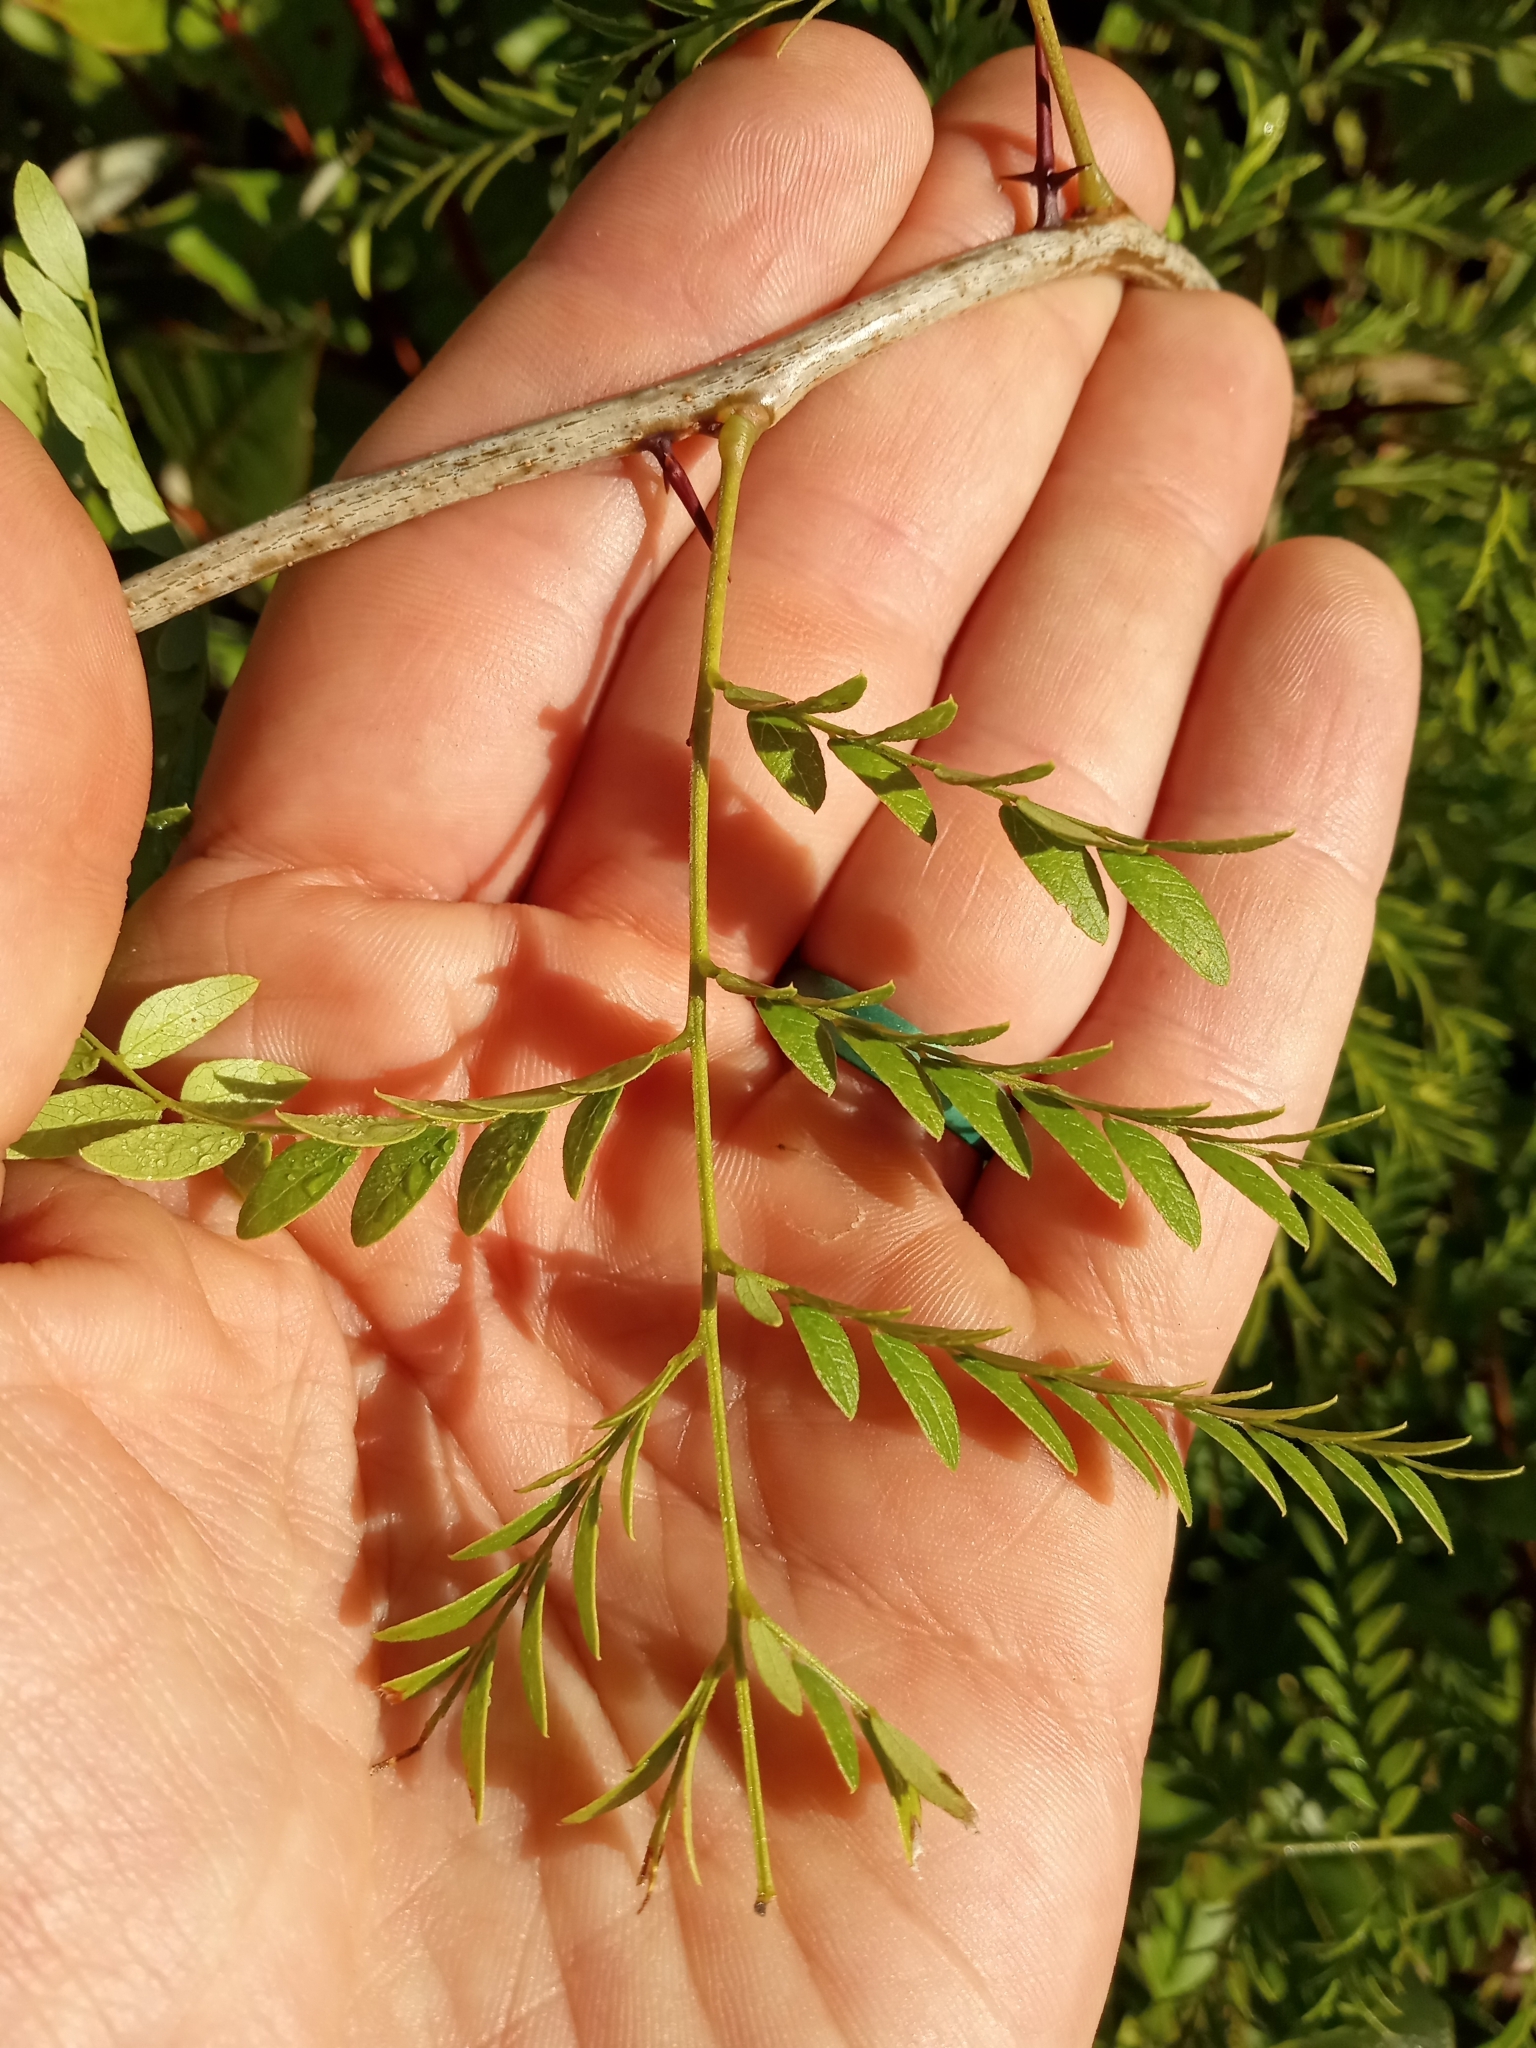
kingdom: Plantae
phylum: Tracheophyta
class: Magnoliopsida
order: Fabales
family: Fabaceae
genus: Gleditsia
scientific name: Gleditsia triacanthos
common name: Common honeylocust
